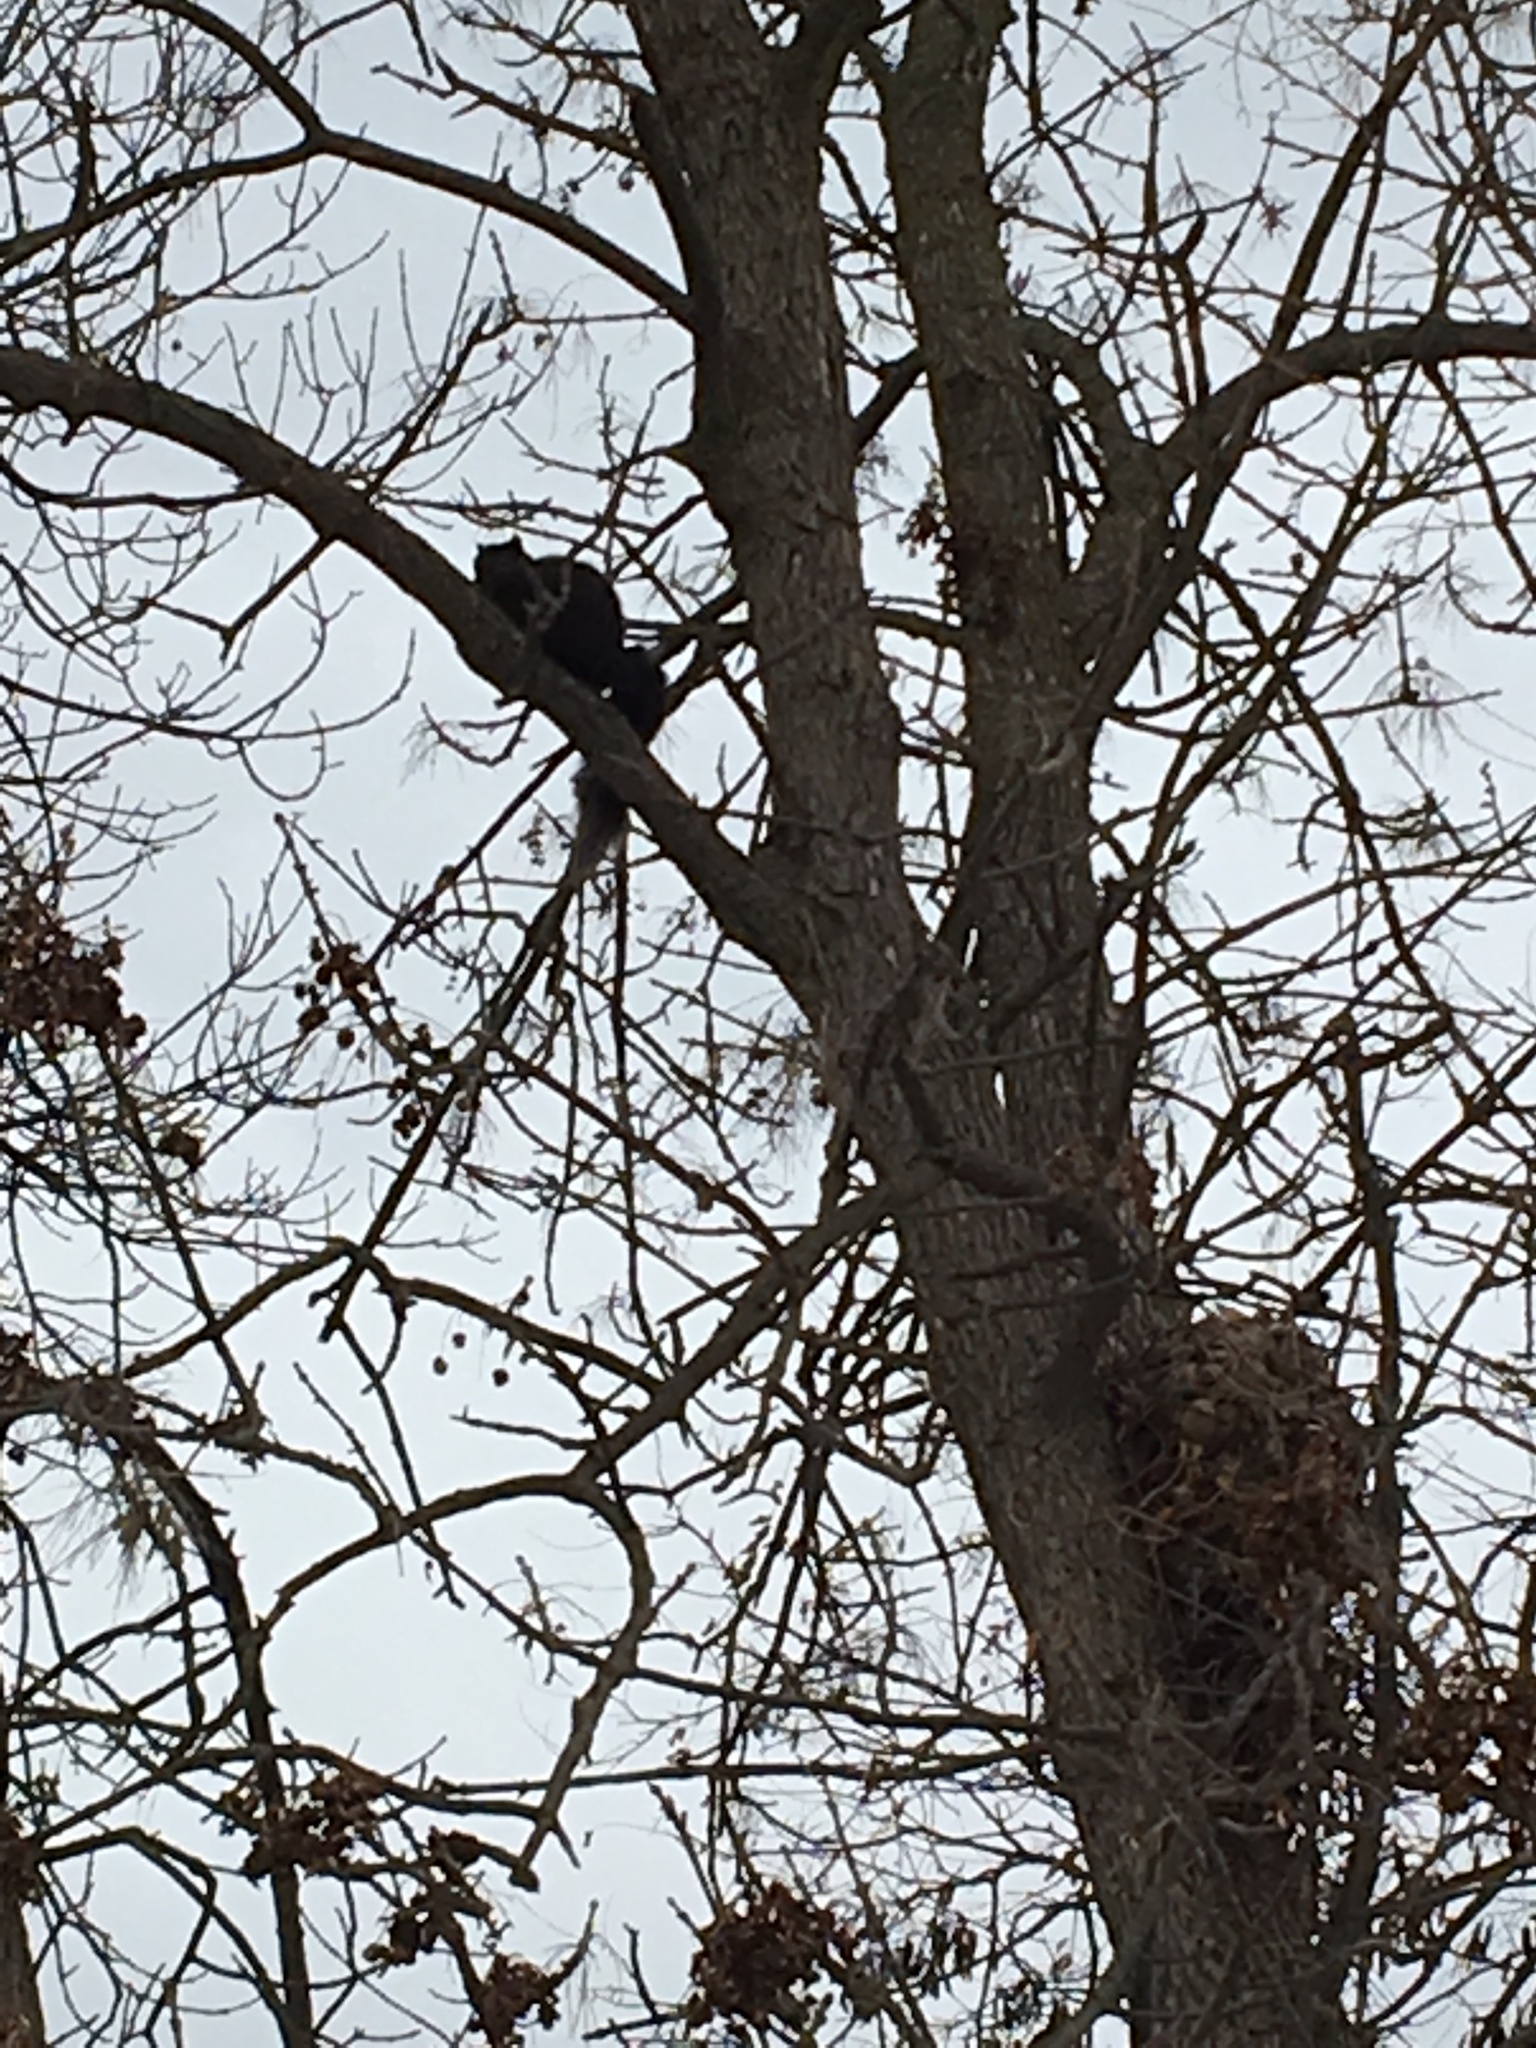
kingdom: Animalia
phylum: Chordata
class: Mammalia
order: Rodentia
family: Sciuridae
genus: Sciurus
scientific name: Sciurus carolinensis
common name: Eastern gray squirrel
